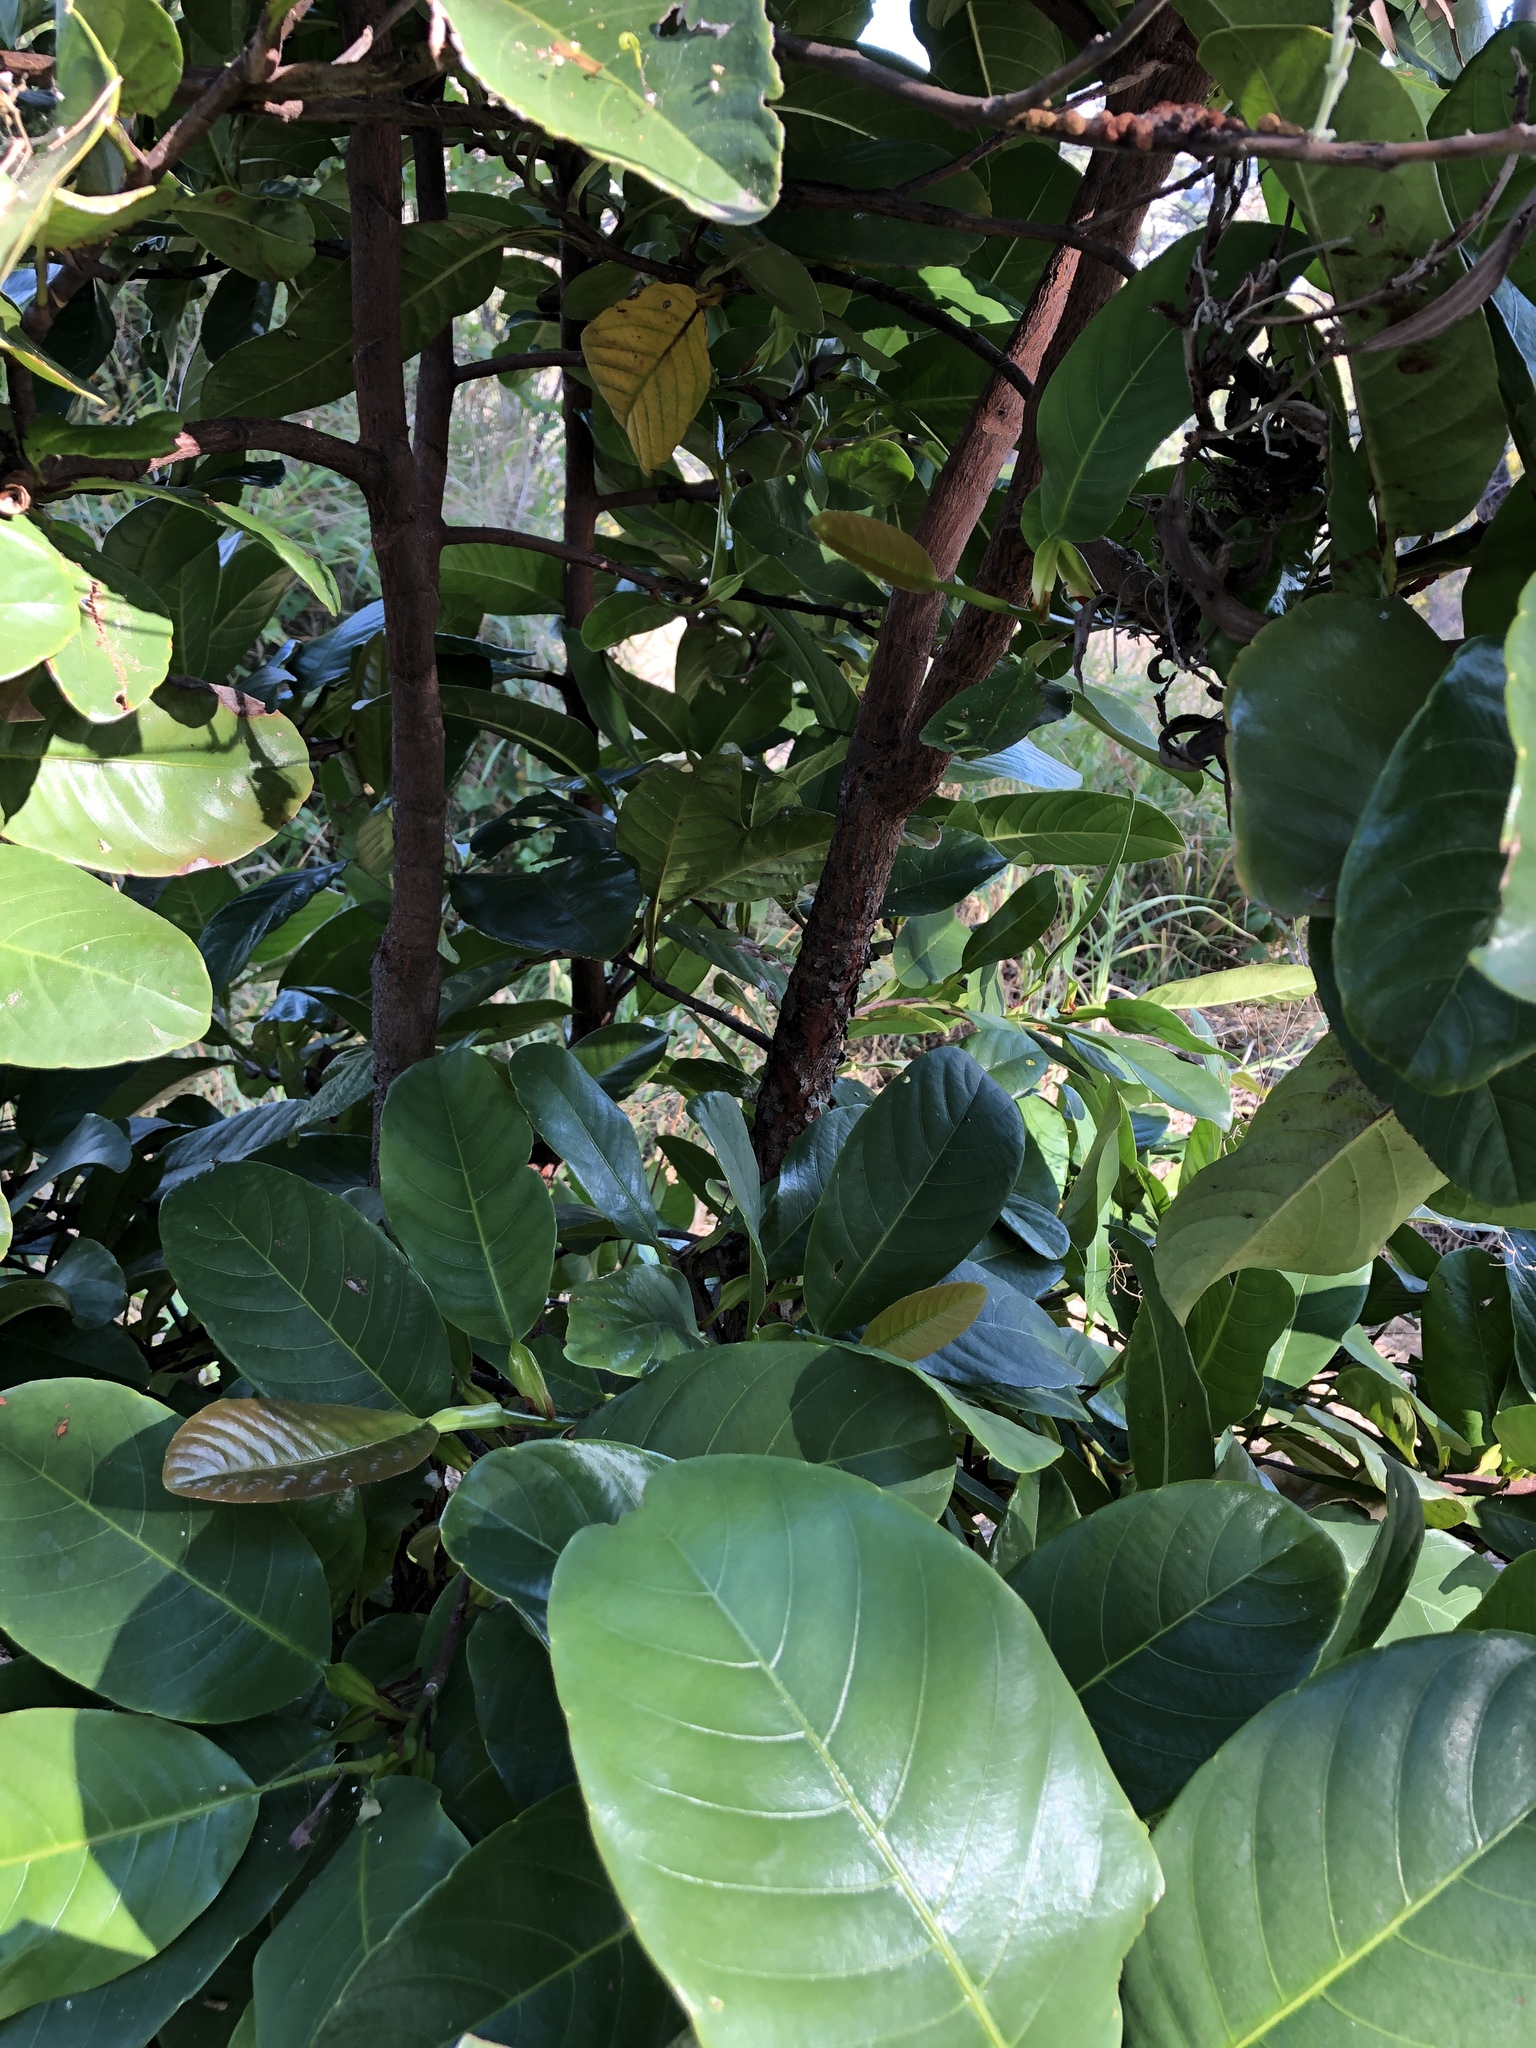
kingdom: Plantae
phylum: Tracheophyta
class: Magnoliopsida
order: Dilleniales
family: Dilleniaceae
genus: Dillenia
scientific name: Dillenia alata
